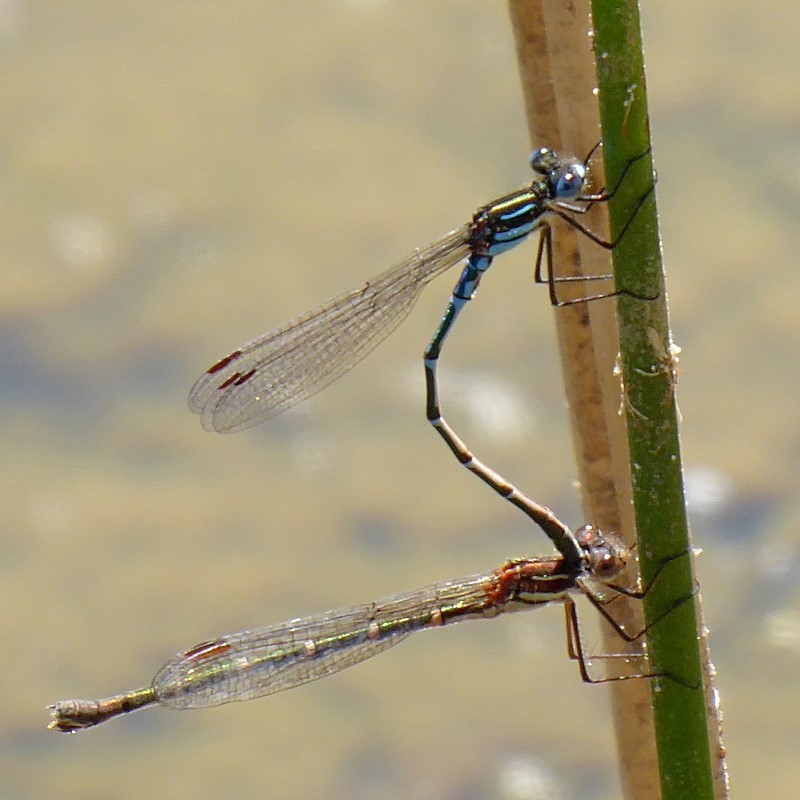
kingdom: Animalia
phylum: Arthropoda
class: Insecta
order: Odonata
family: Lestidae
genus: Austrolestes
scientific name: Austrolestes psyche
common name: Cup ringtail
